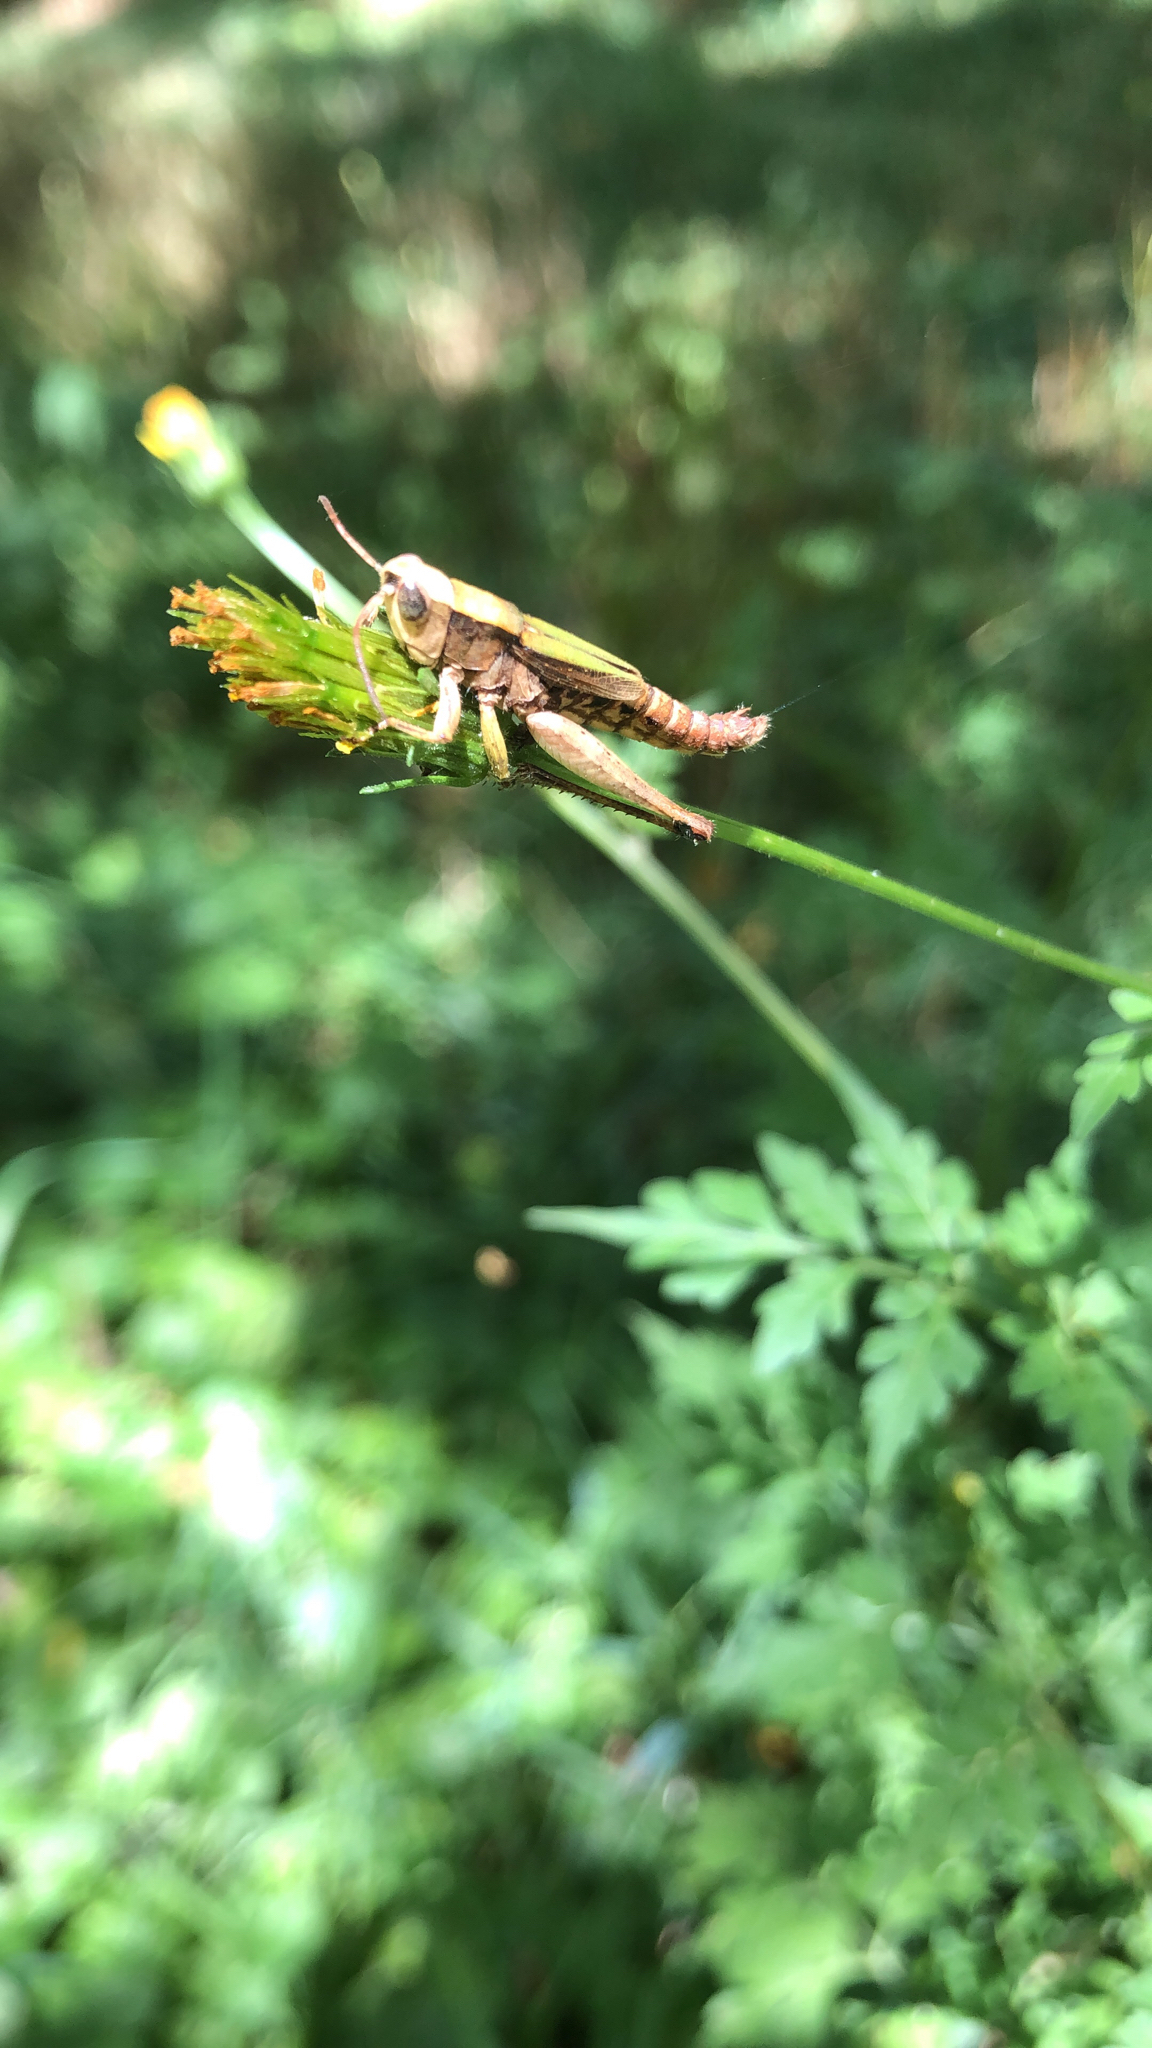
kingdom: Animalia
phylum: Arthropoda
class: Insecta
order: Orthoptera
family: Acrididae
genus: Dichromorpha
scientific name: Dichromorpha viridis
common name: Short-winged green grasshopper
